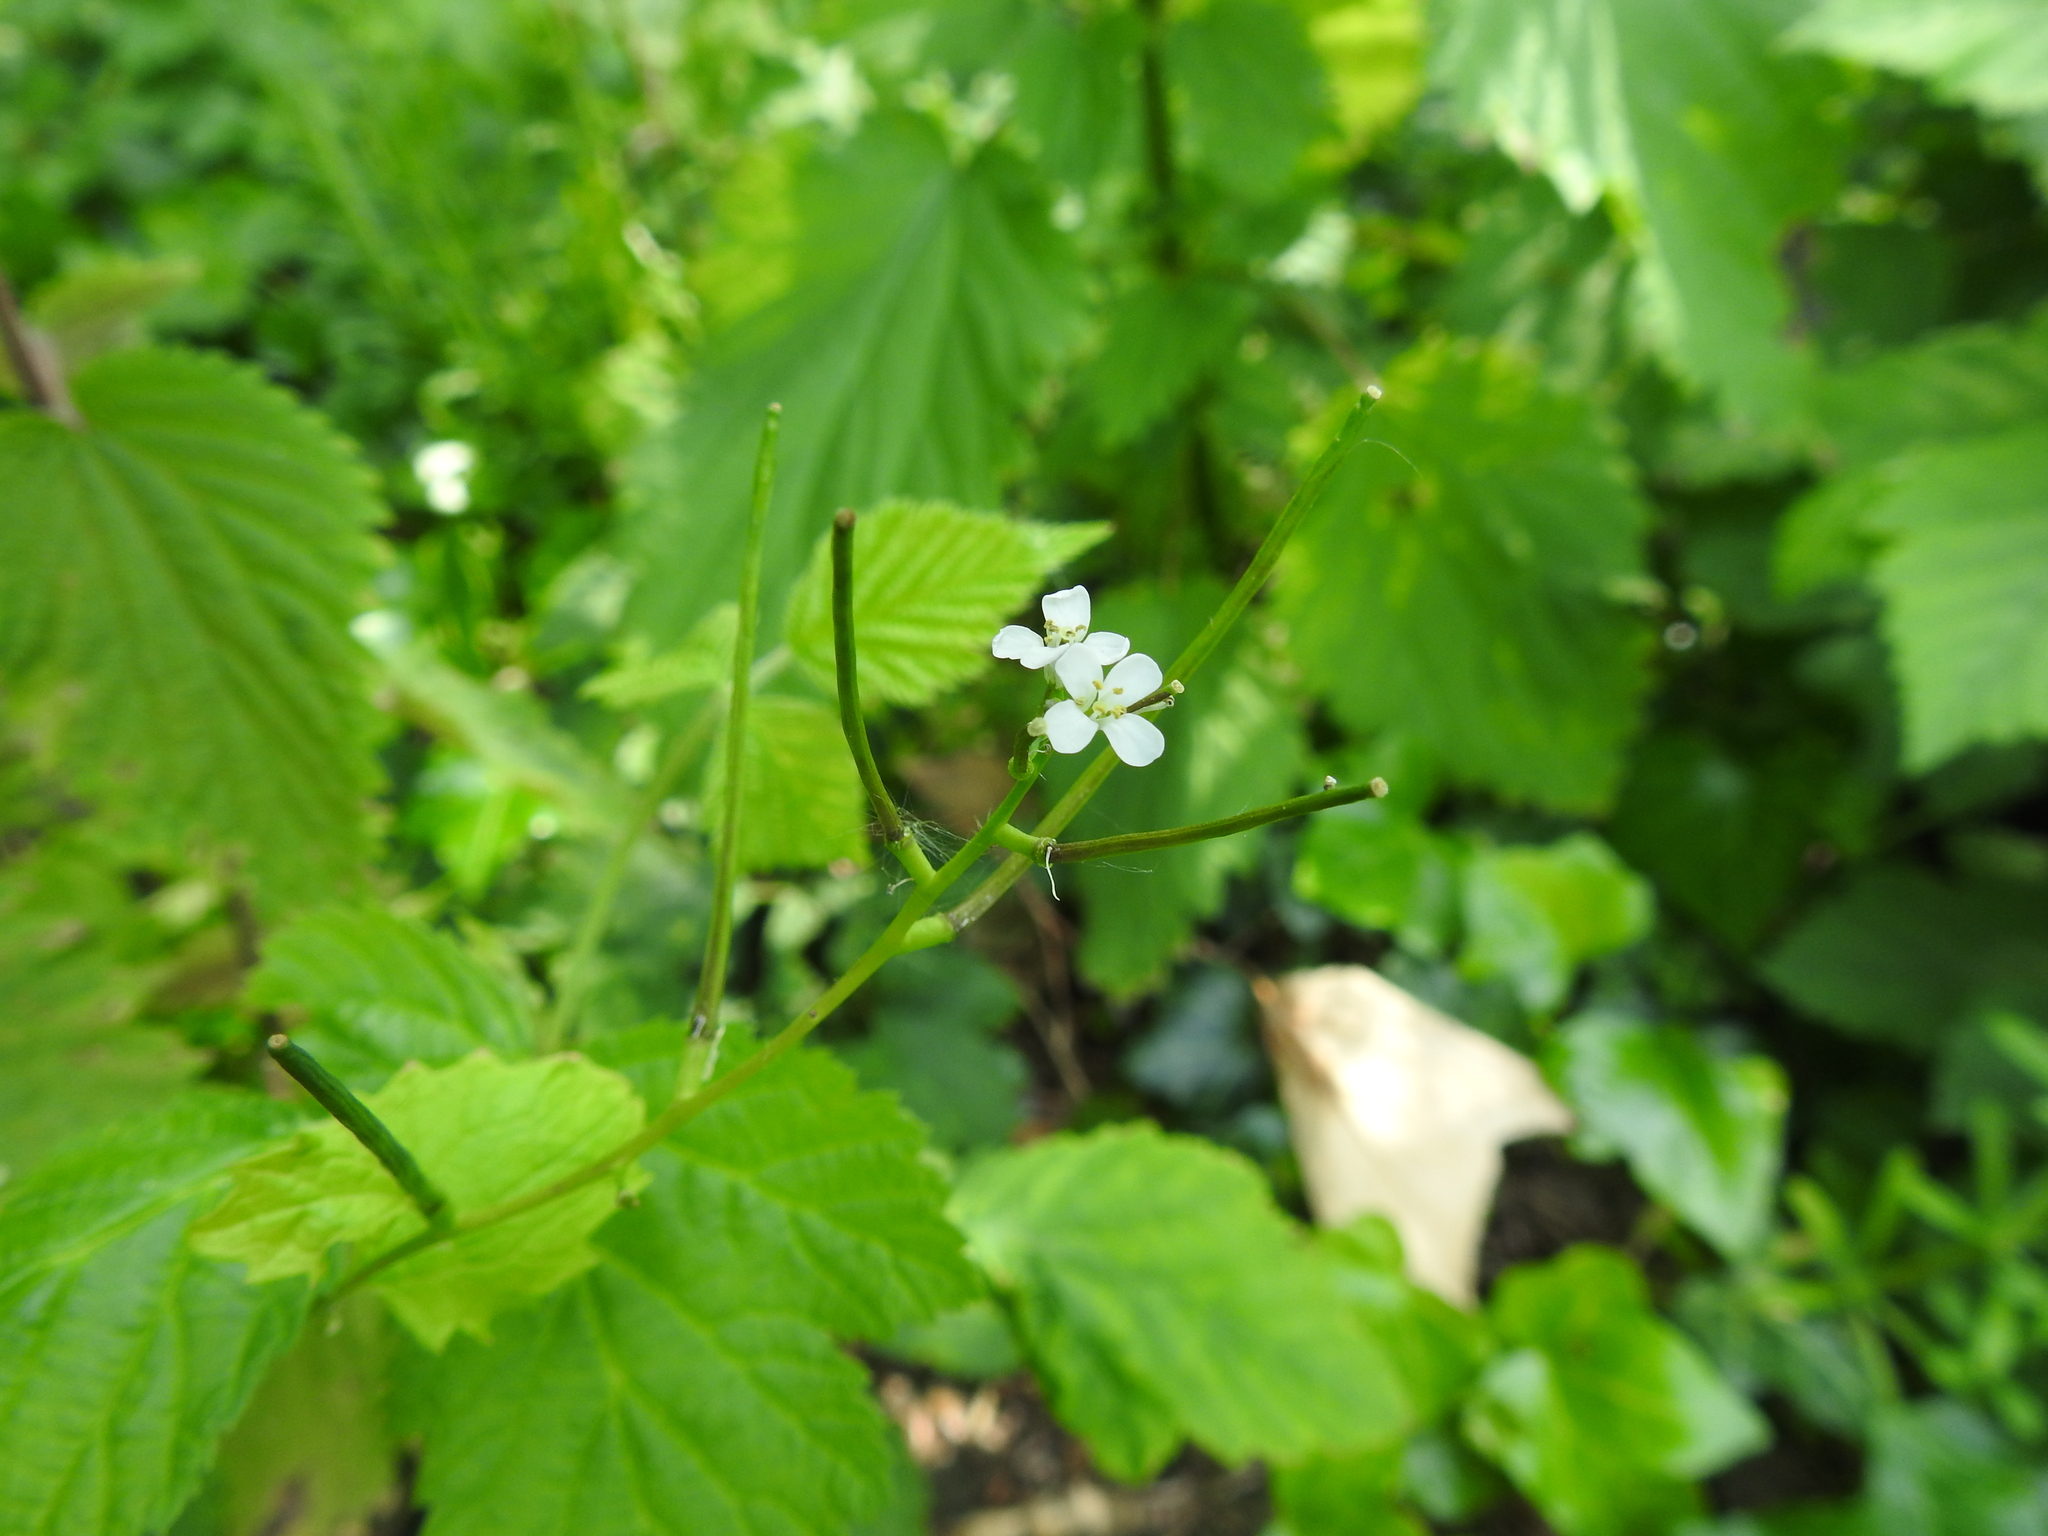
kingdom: Plantae
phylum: Tracheophyta
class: Magnoliopsida
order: Brassicales
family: Brassicaceae
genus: Alliaria
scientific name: Alliaria petiolata
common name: Garlic mustard
